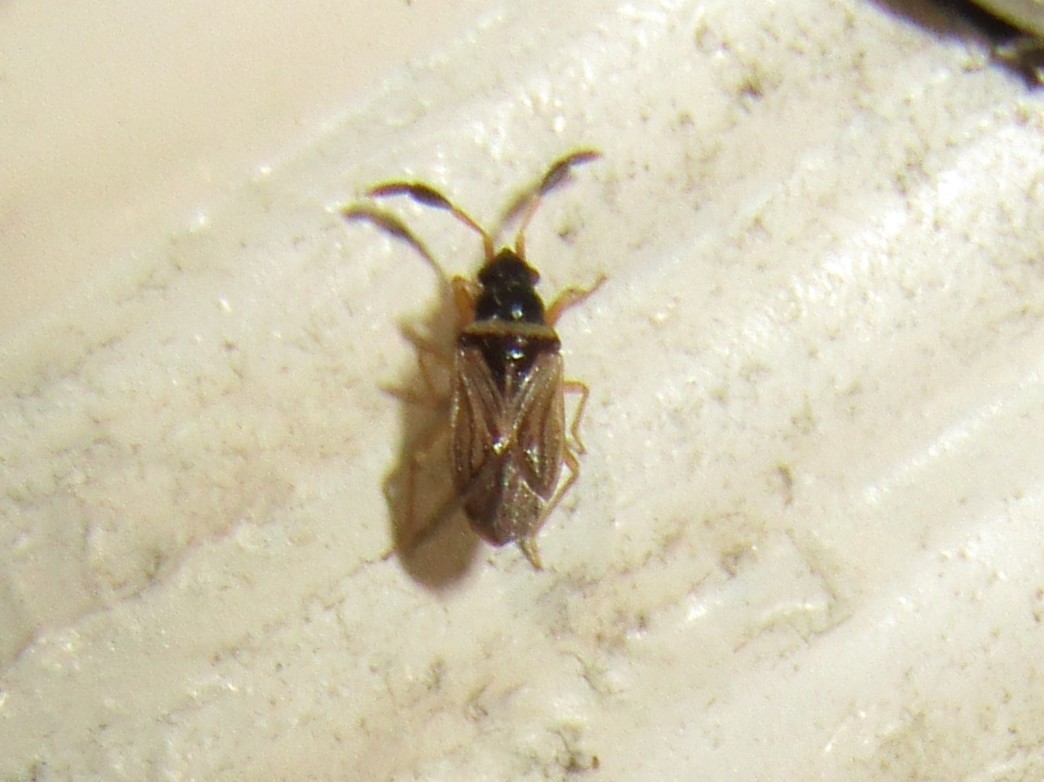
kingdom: Animalia
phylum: Arthropoda
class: Insecta
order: Hemiptera
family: Rhyparochromidae
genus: Ptochiomera
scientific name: Ptochiomera nodosa
